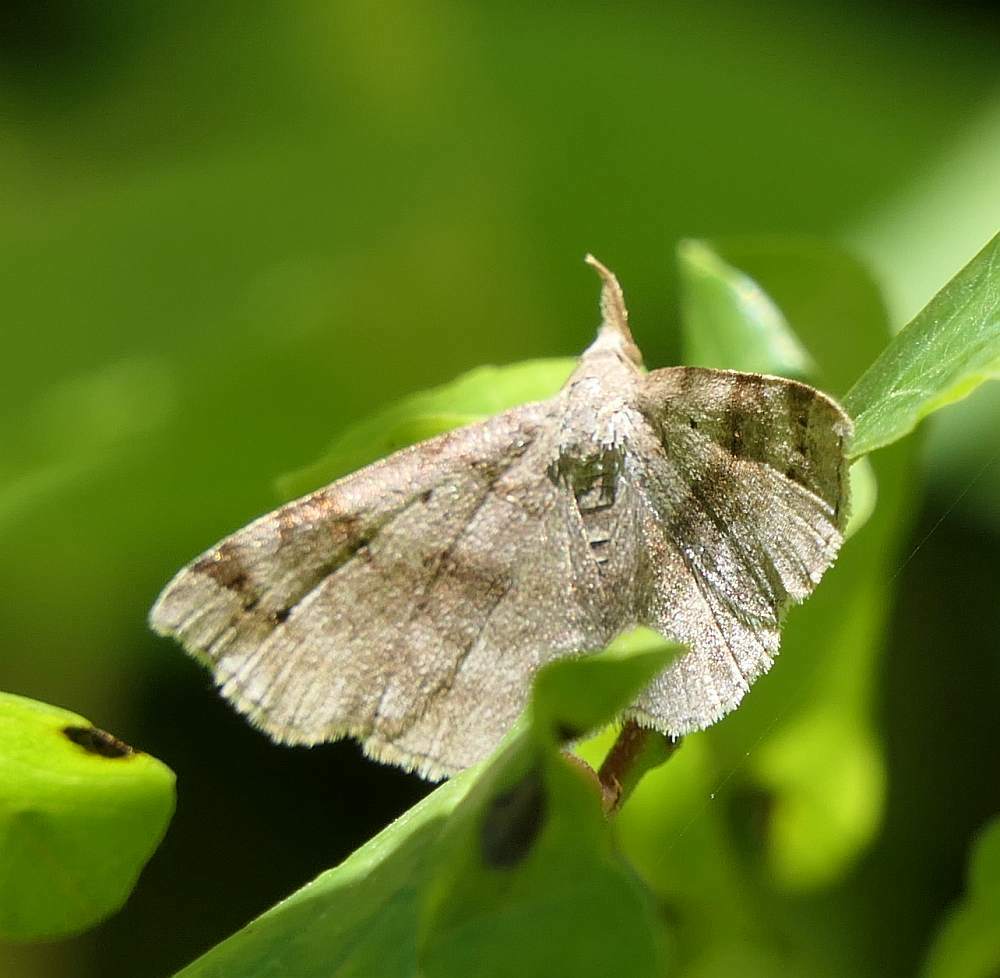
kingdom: Animalia
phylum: Arthropoda
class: Insecta
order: Lepidoptera
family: Erebidae
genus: Spargaloma
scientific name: Spargaloma sexpunctata
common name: Six-spotted gray
